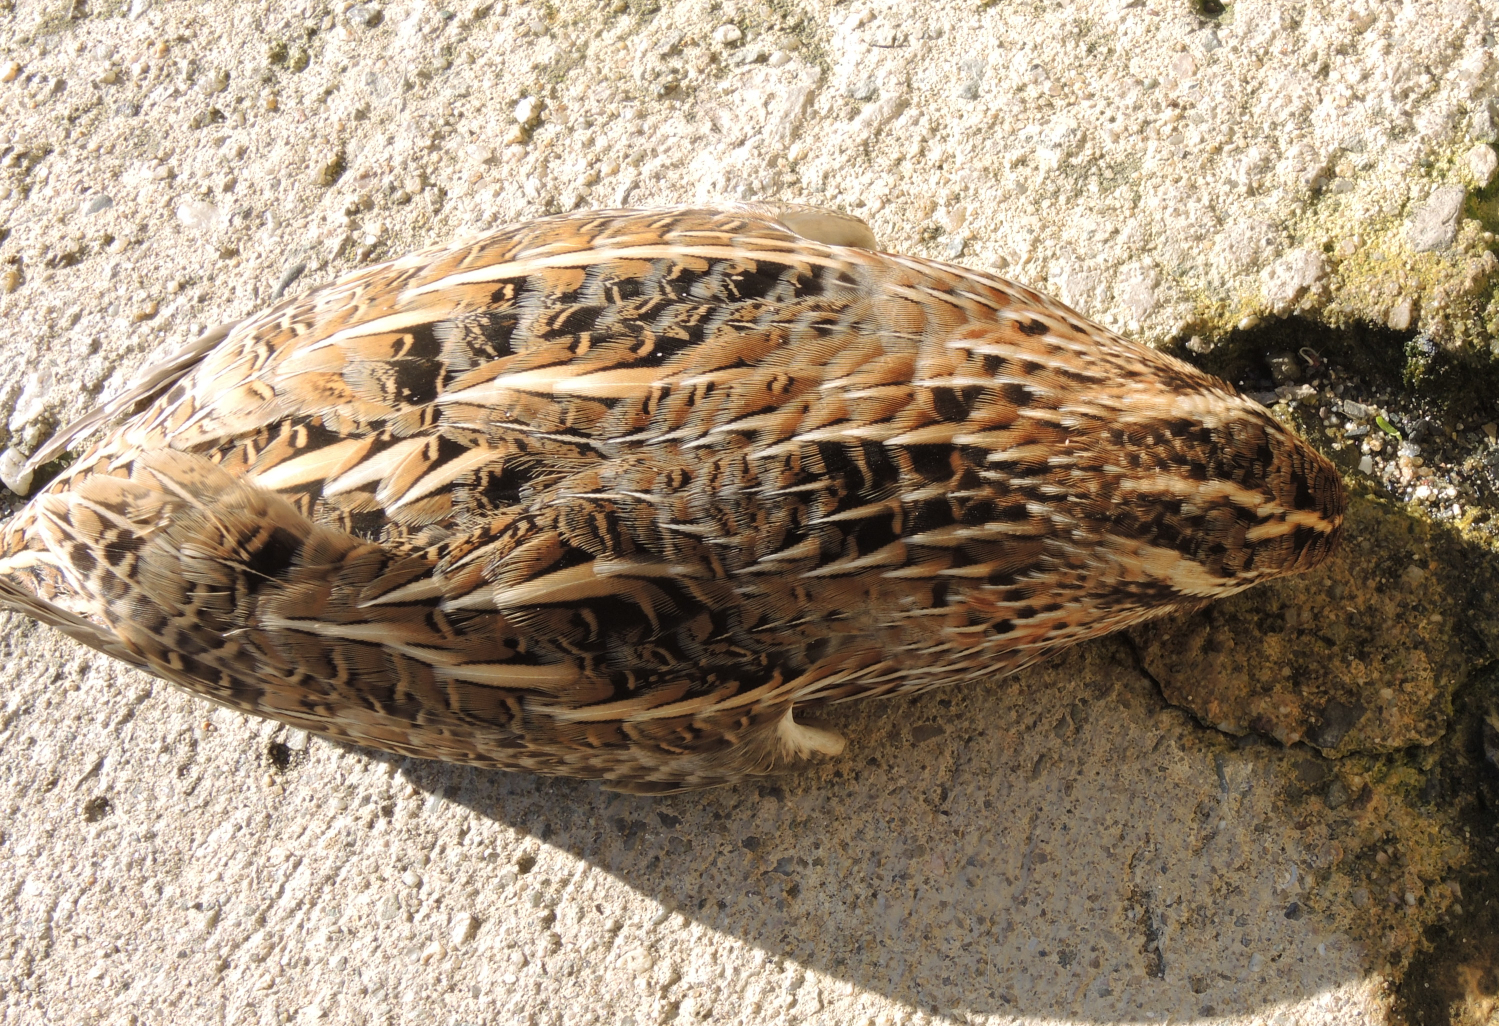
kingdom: Animalia
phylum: Chordata
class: Aves
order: Galliformes
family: Phasianidae
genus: Coturnix
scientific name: Coturnix coturnix
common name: Common quail
